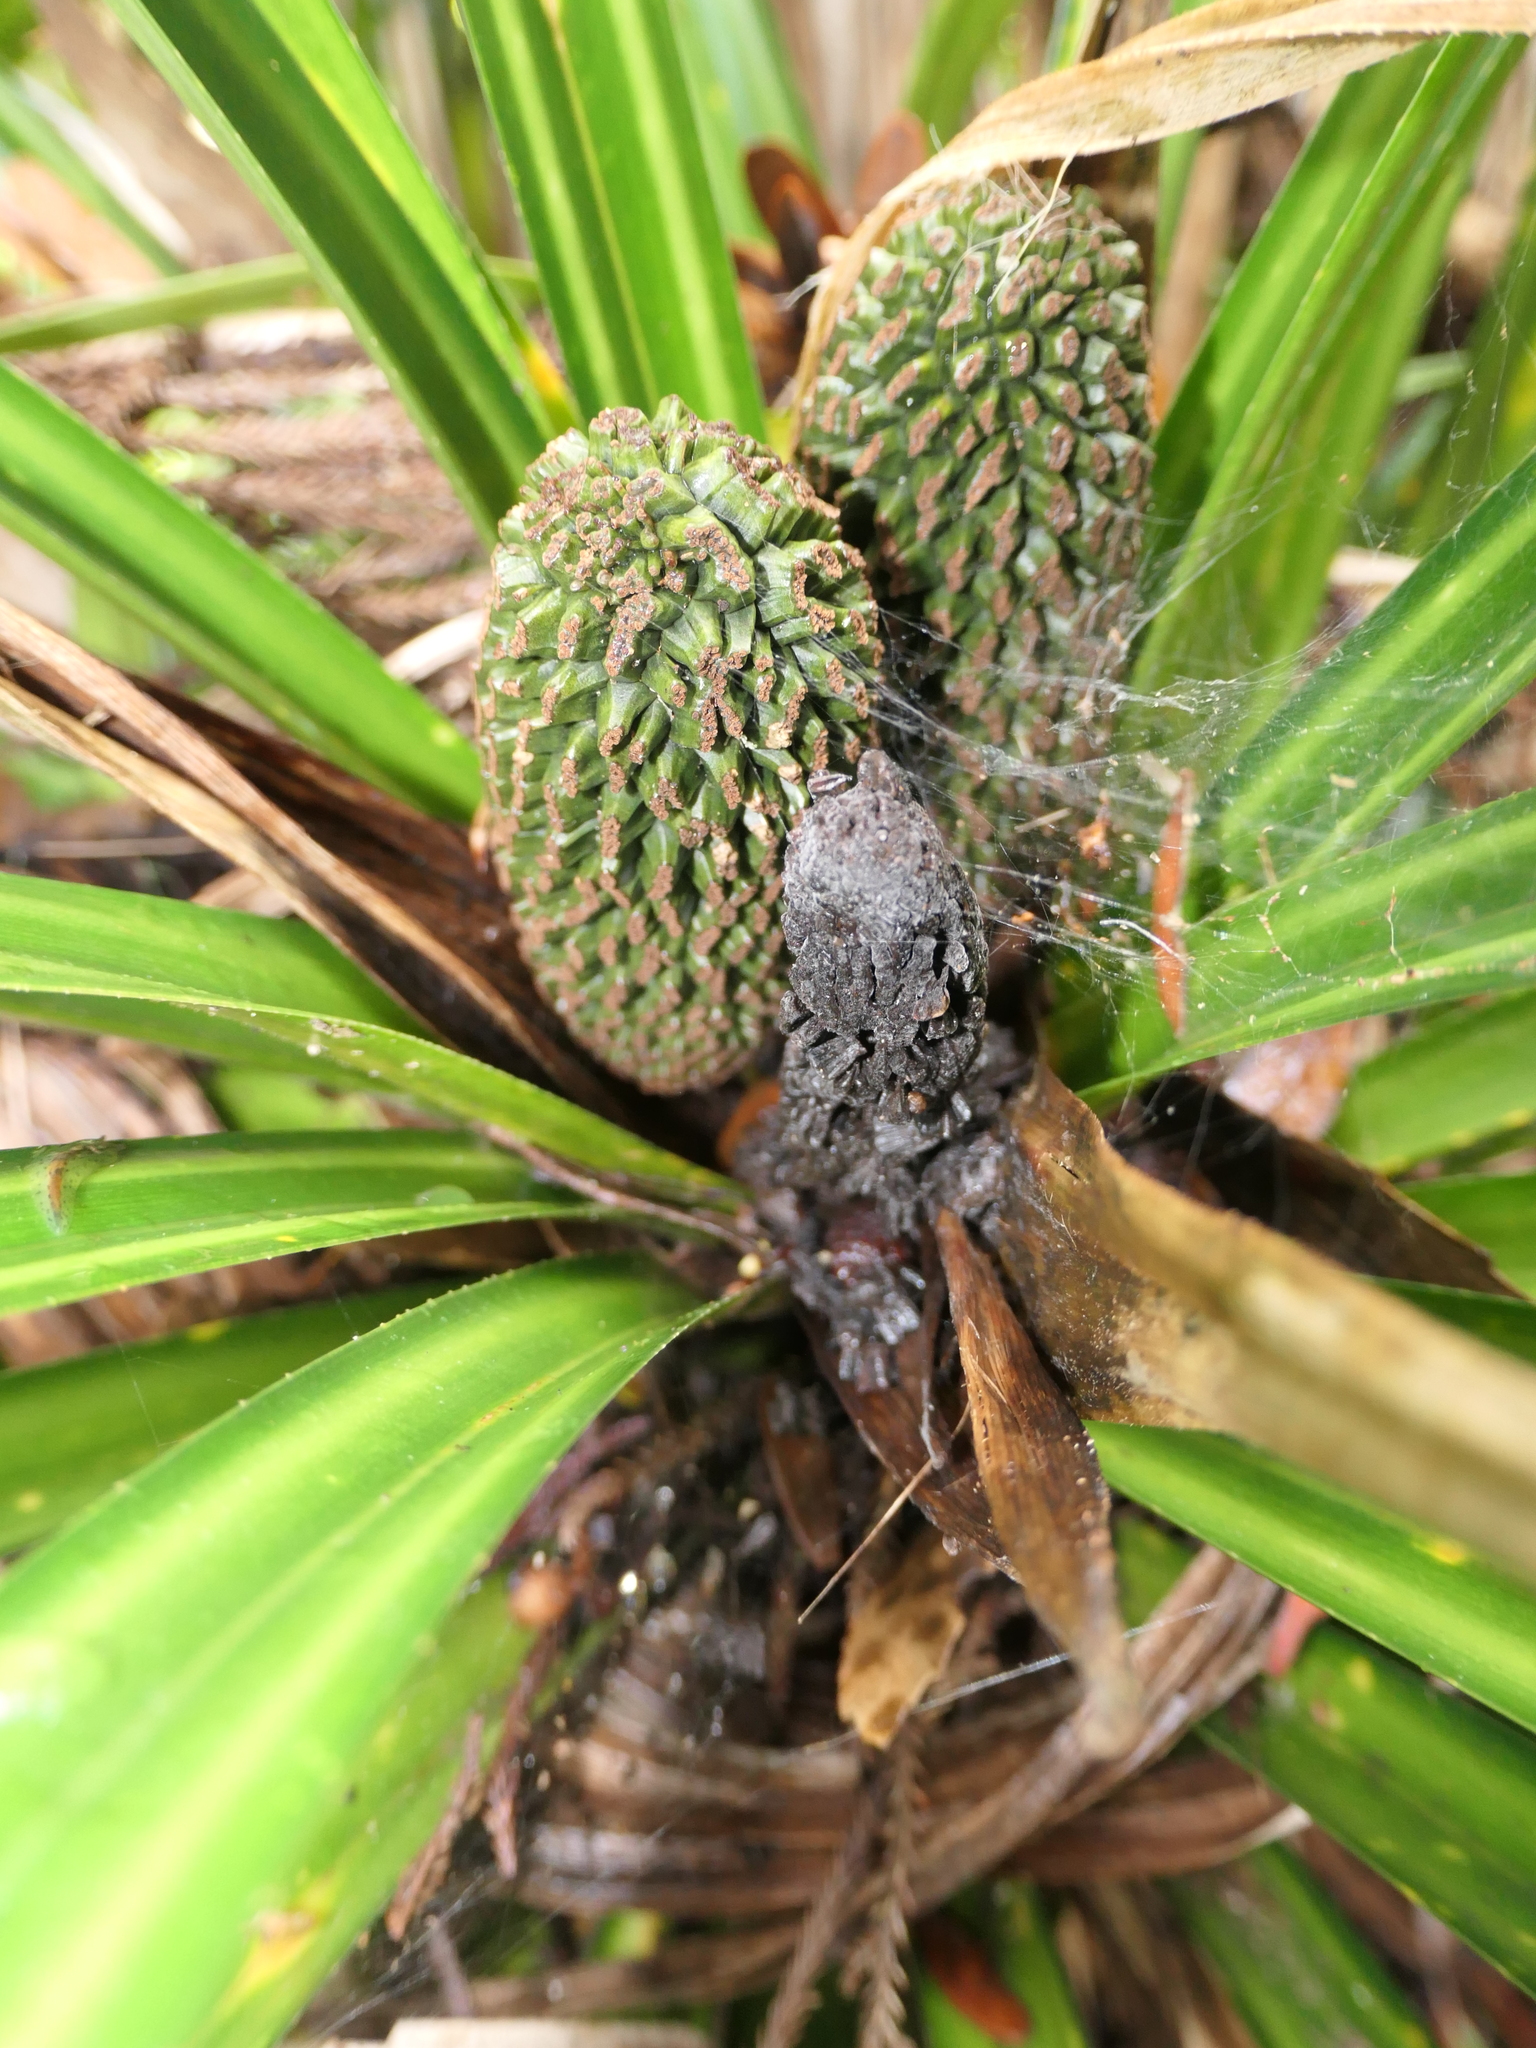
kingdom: Plantae
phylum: Tracheophyta
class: Liliopsida
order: Pandanales
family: Pandanaceae
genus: Freycinetia
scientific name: Freycinetia banksii
